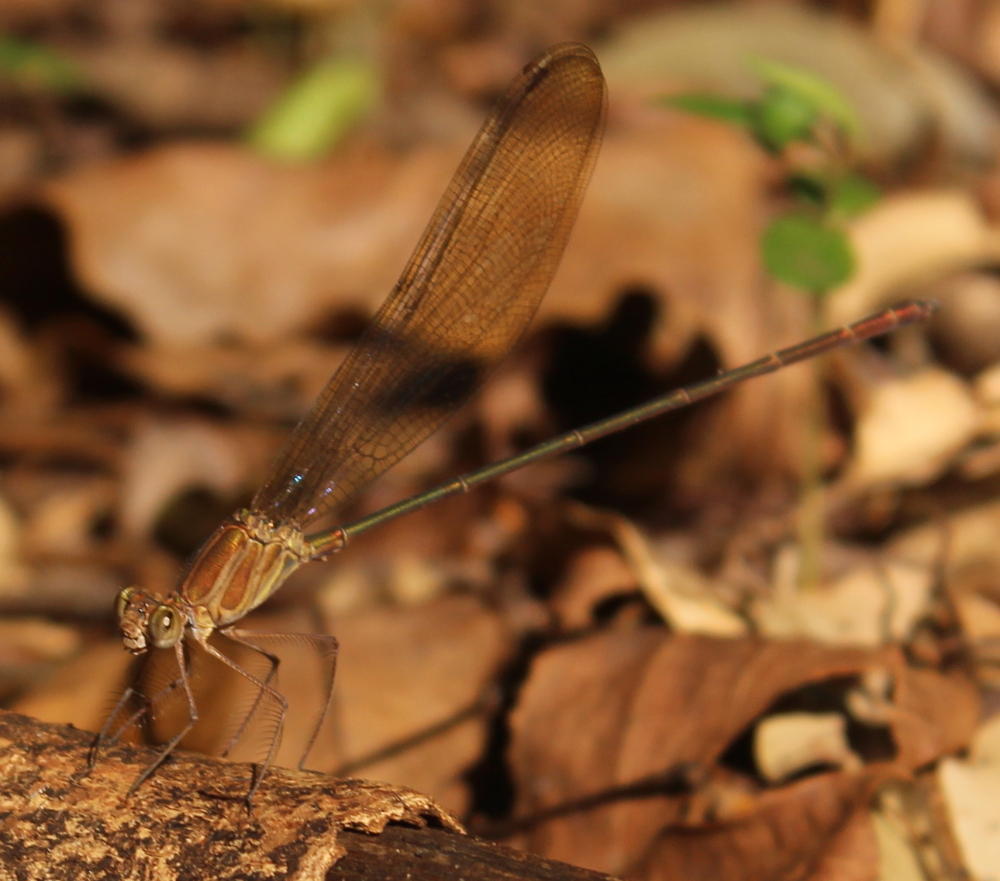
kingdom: Animalia
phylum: Arthropoda
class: Insecta
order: Odonata
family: Calopterygidae
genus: Phaon
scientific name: Phaon iridipennis
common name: Glistening demoiselle
